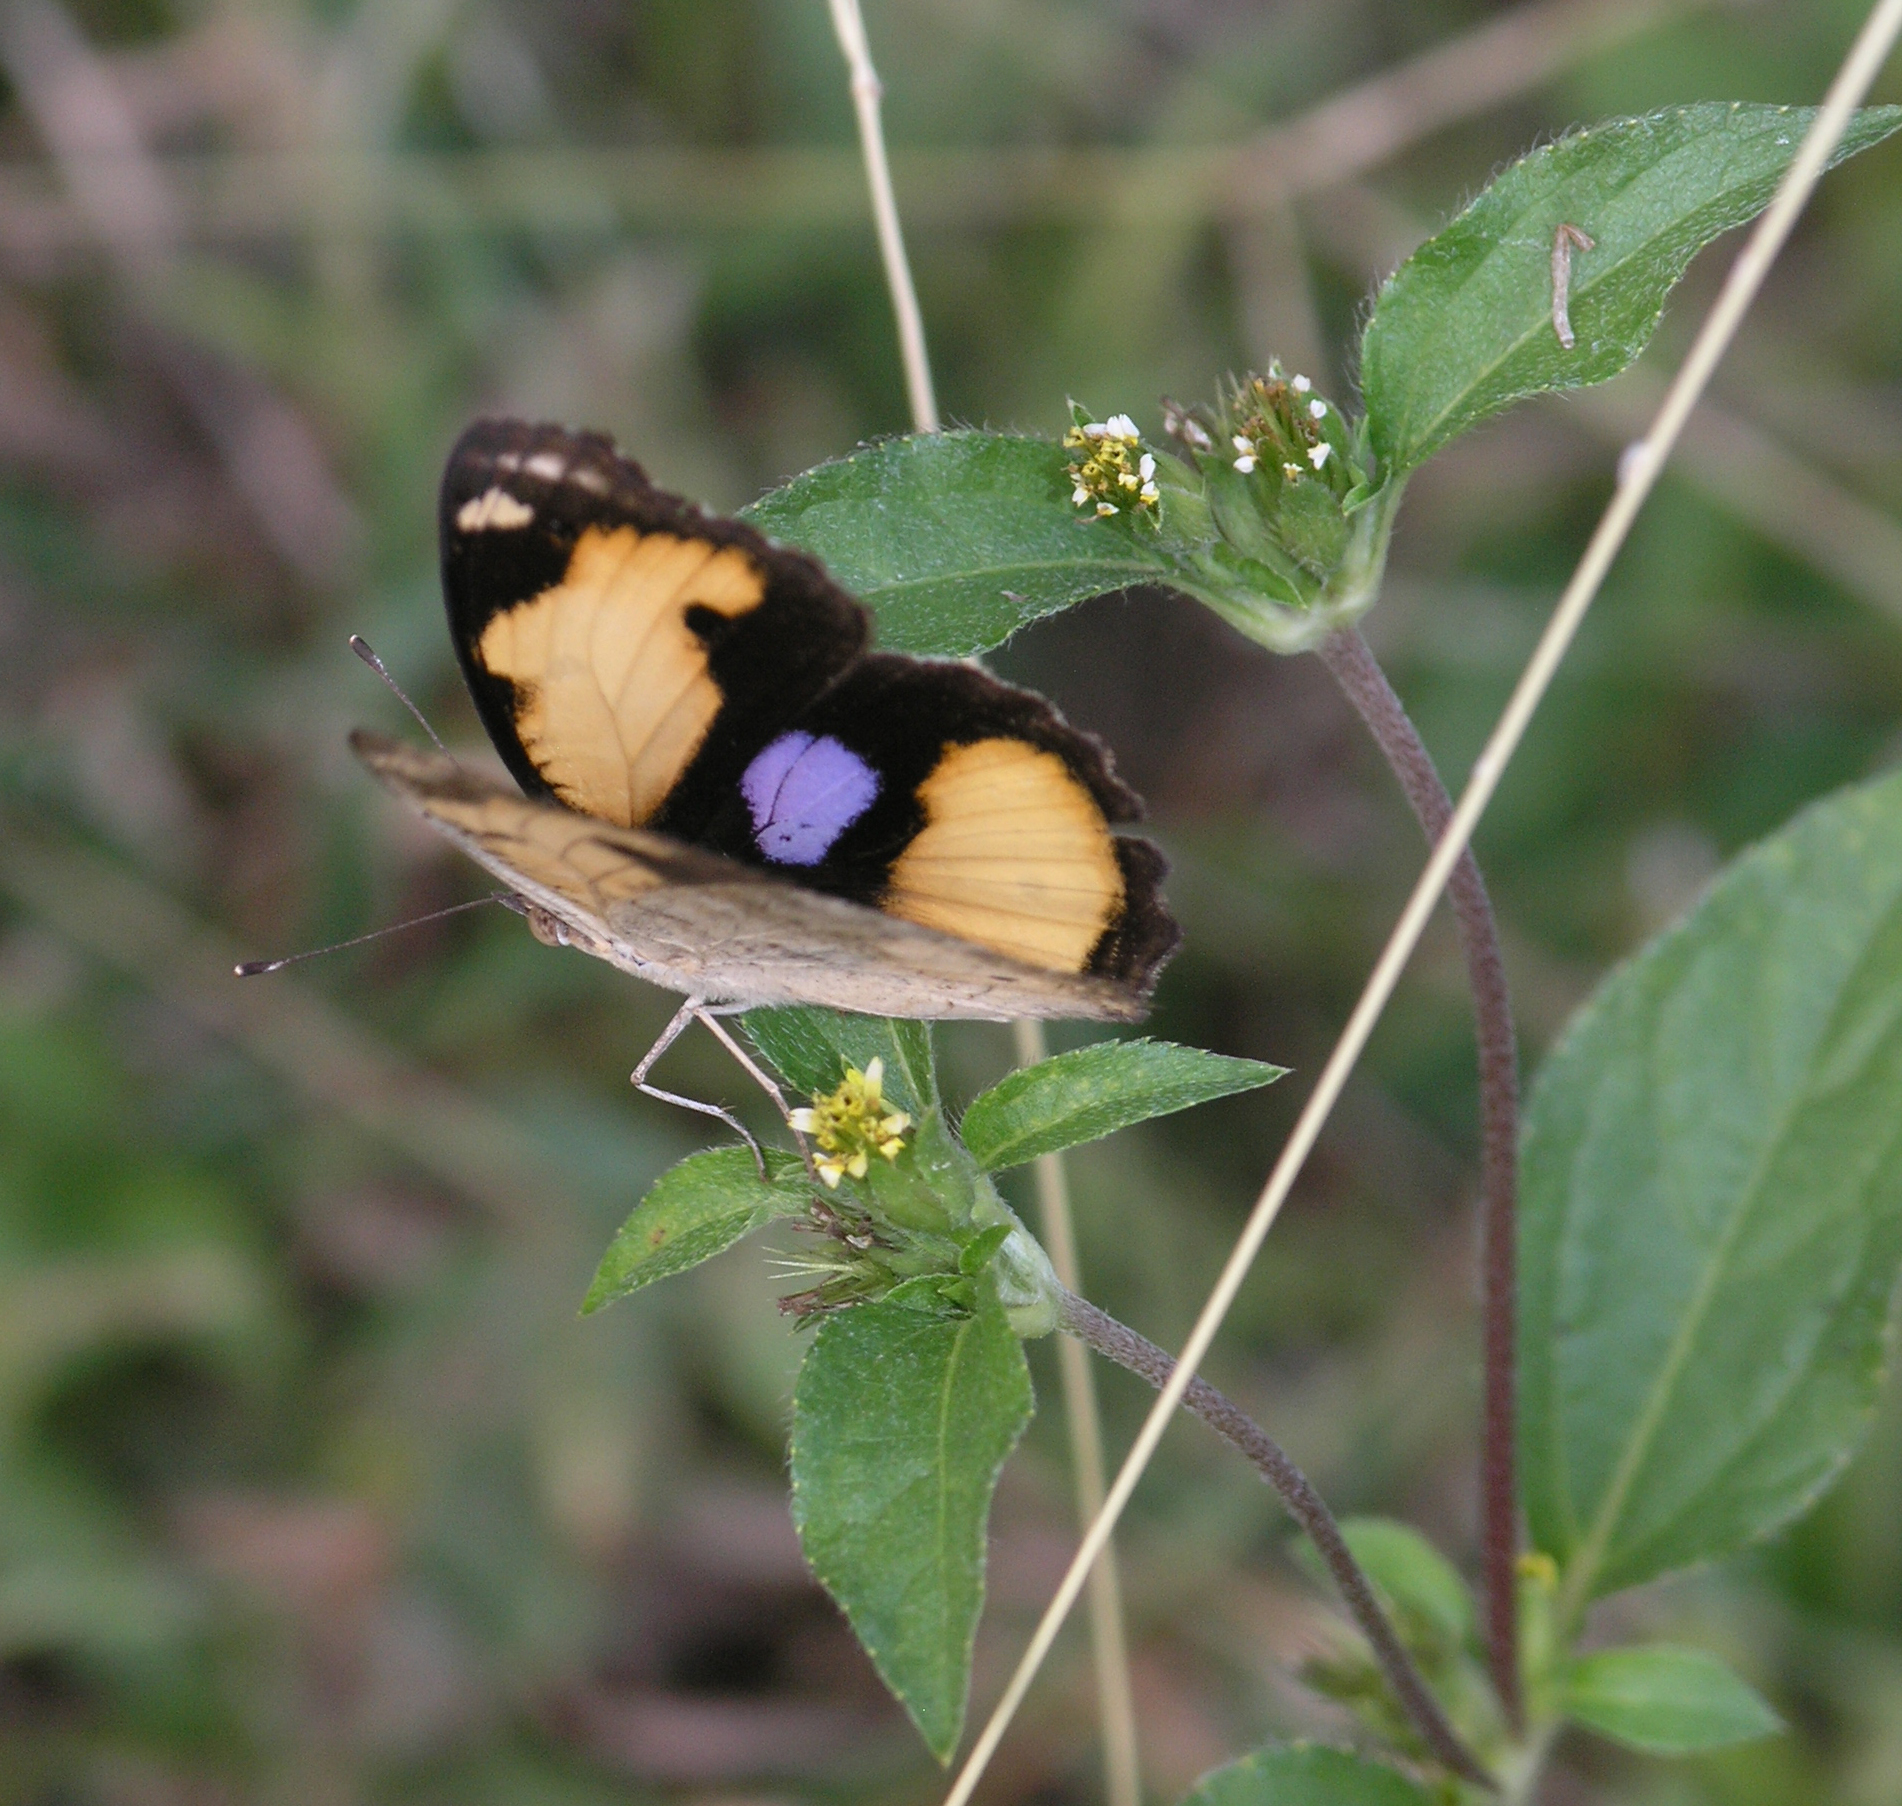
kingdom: Animalia
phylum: Arthropoda
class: Insecta
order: Lepidoptera
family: Nymphalidae
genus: Junonia
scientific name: Junonia hierta
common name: Yellow pansy
